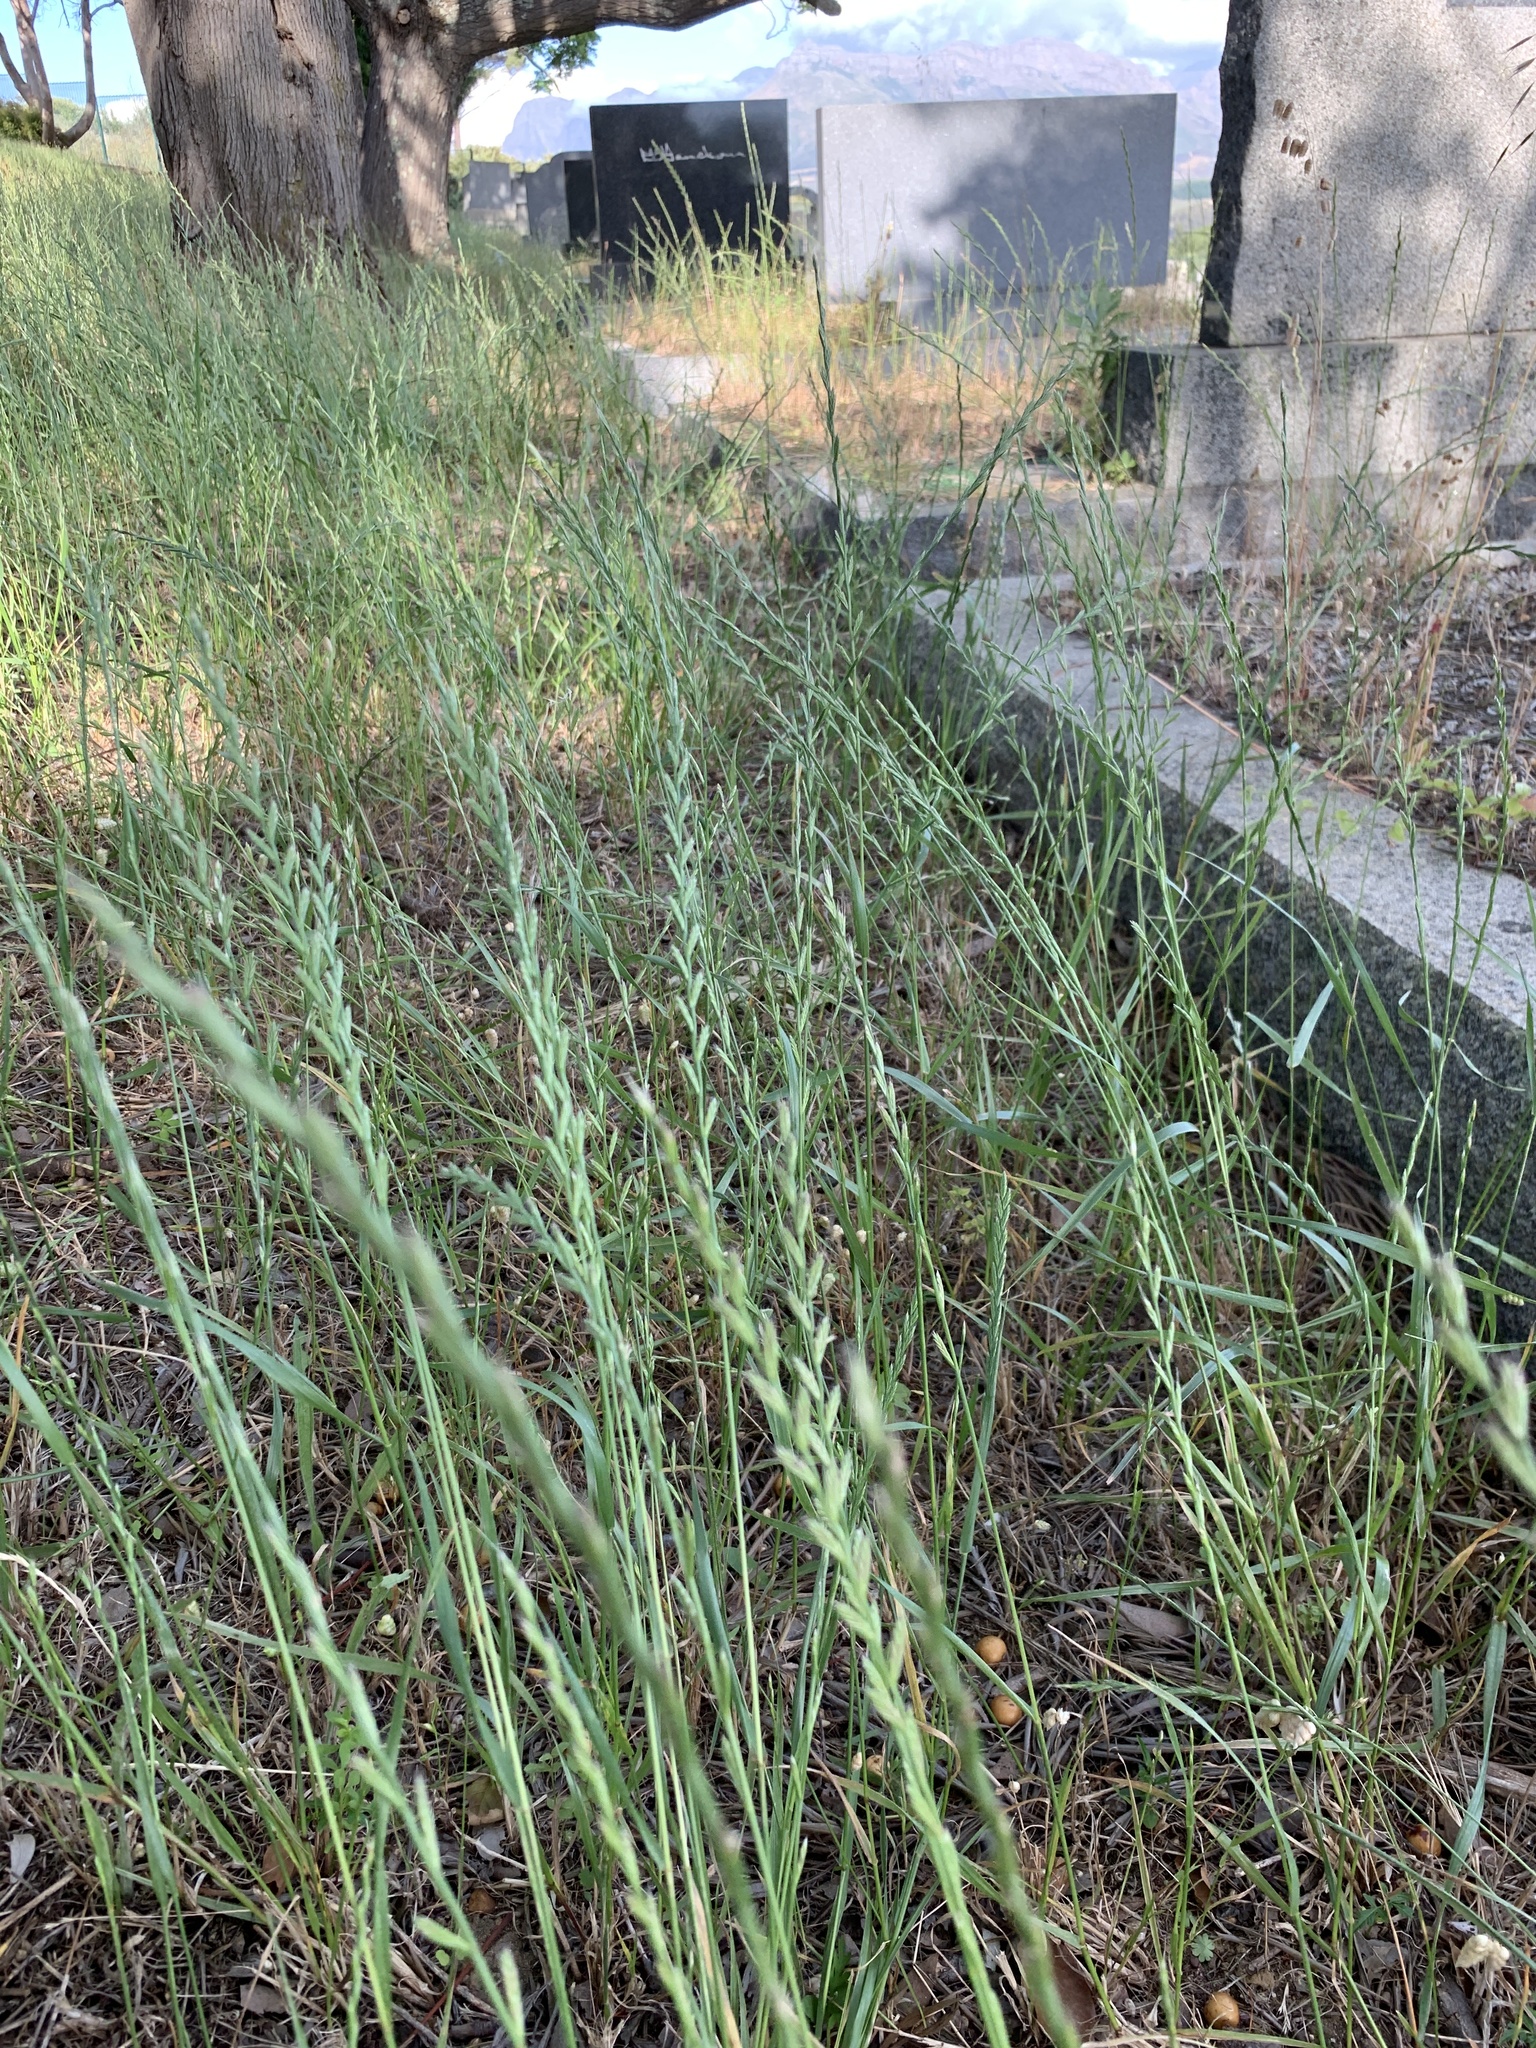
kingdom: Plantae
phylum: Tracheophyta
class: Liliopsida
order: Poales
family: Poaceae
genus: Lolium
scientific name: Lolium multiflorum
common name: Annual ryegrass
